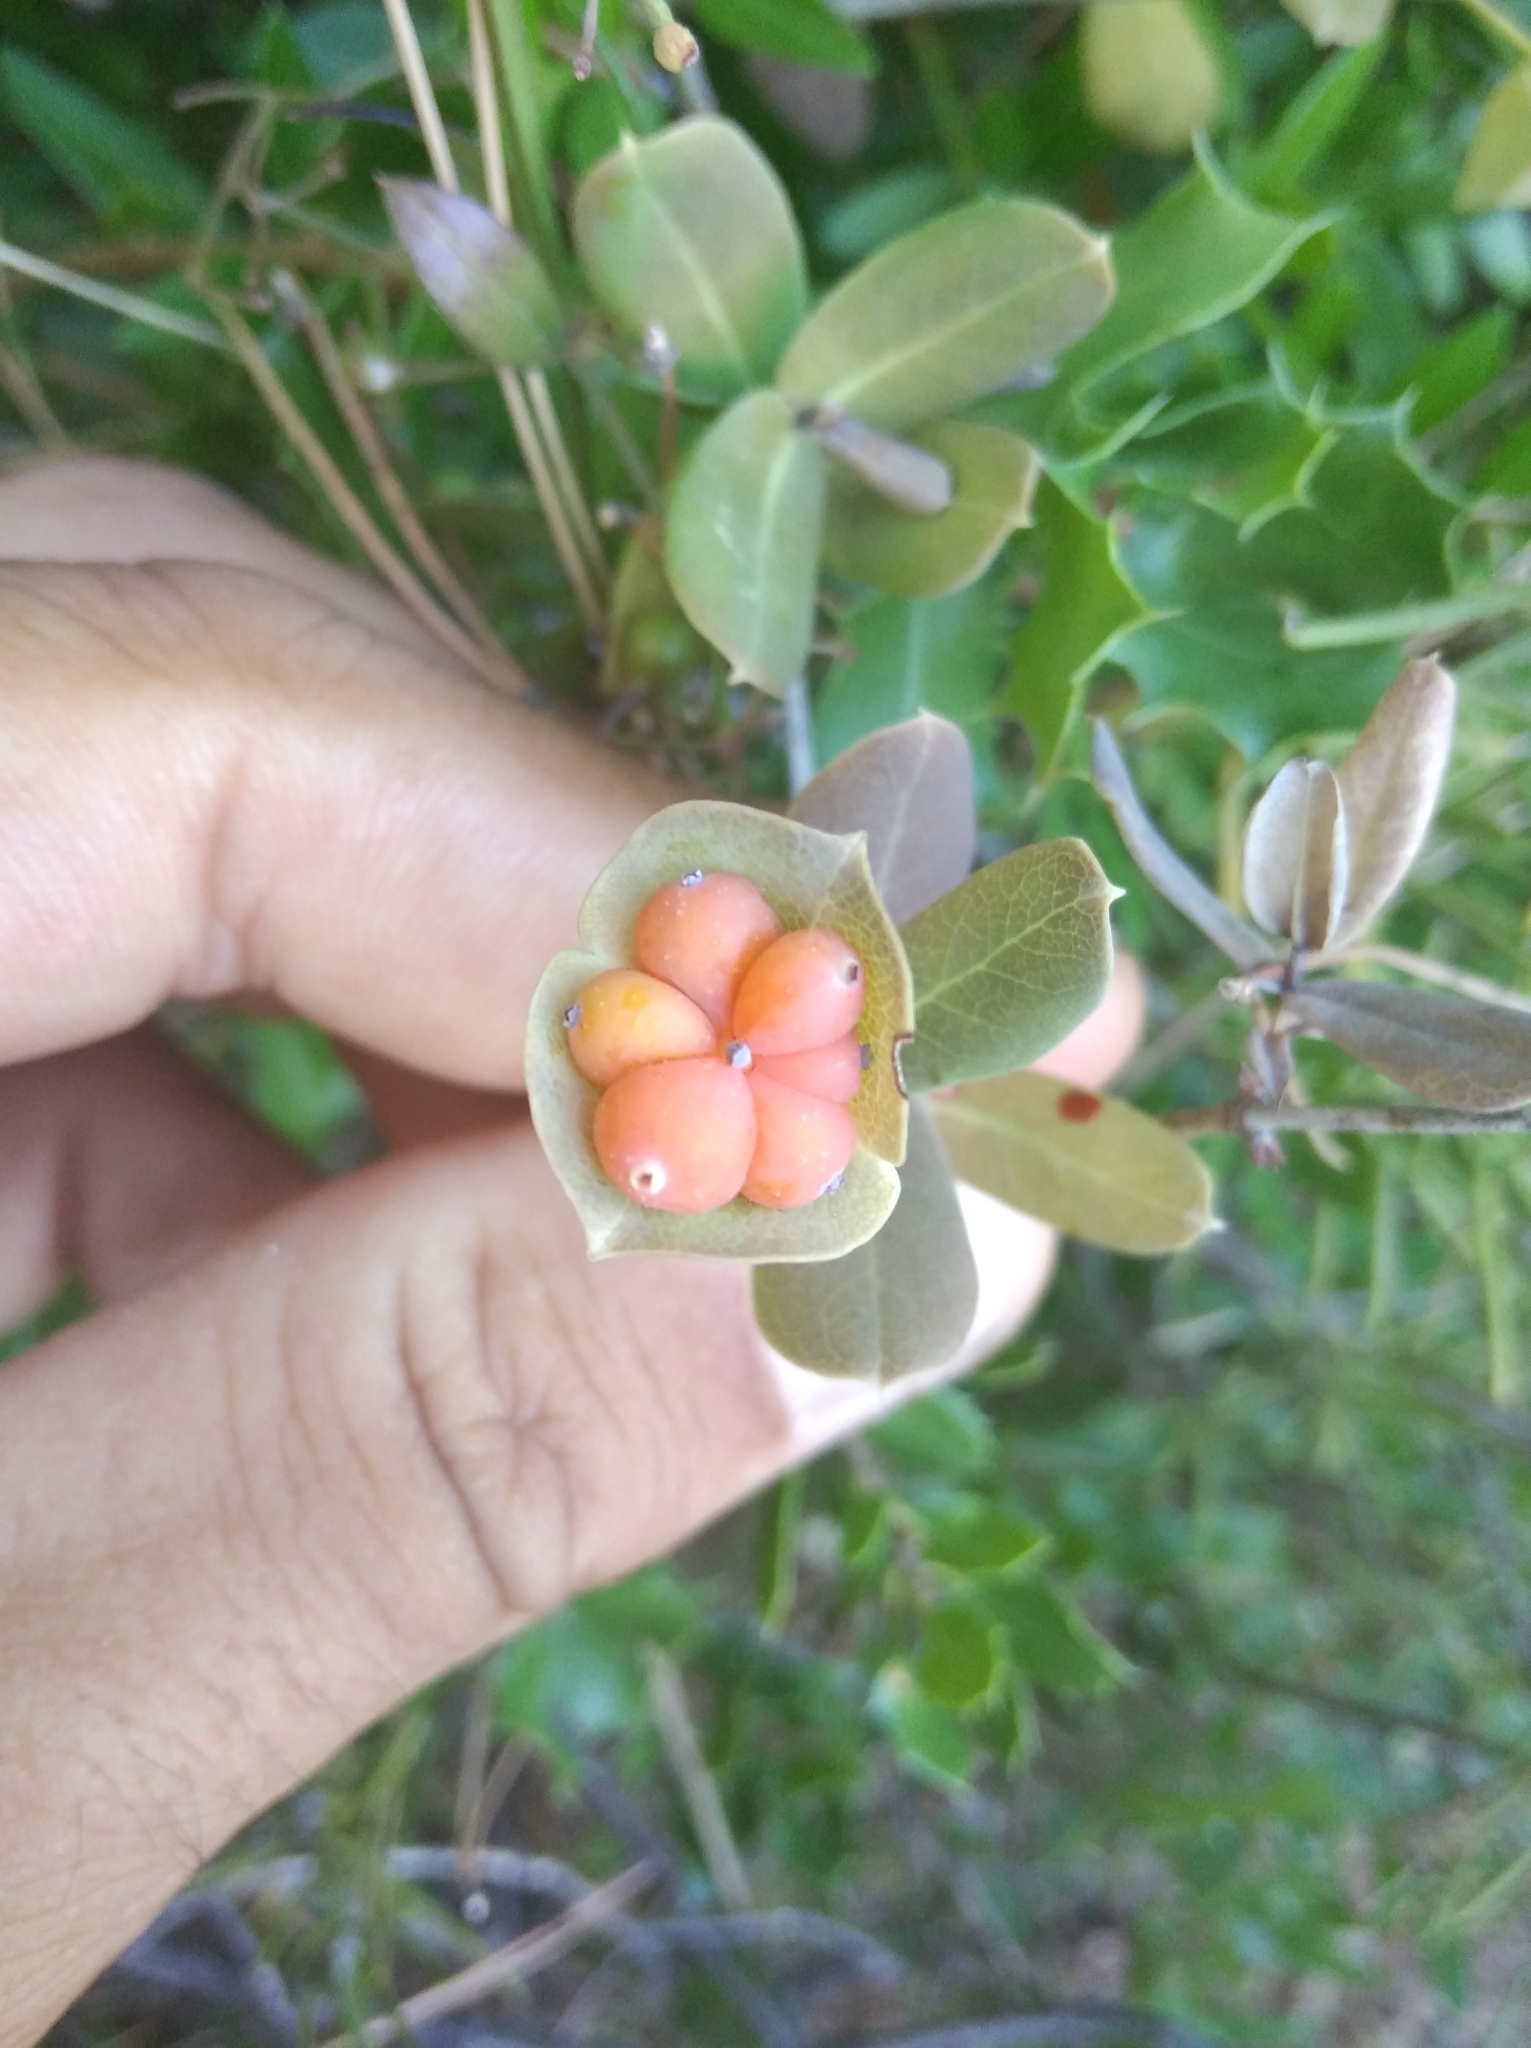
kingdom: Plantae
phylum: Tracheophyta
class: Magnoliopsida
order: Dipsacales
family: Caprifoliaceae
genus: Lonicera
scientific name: Lonicera implexa
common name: Minorca honeysuckle
